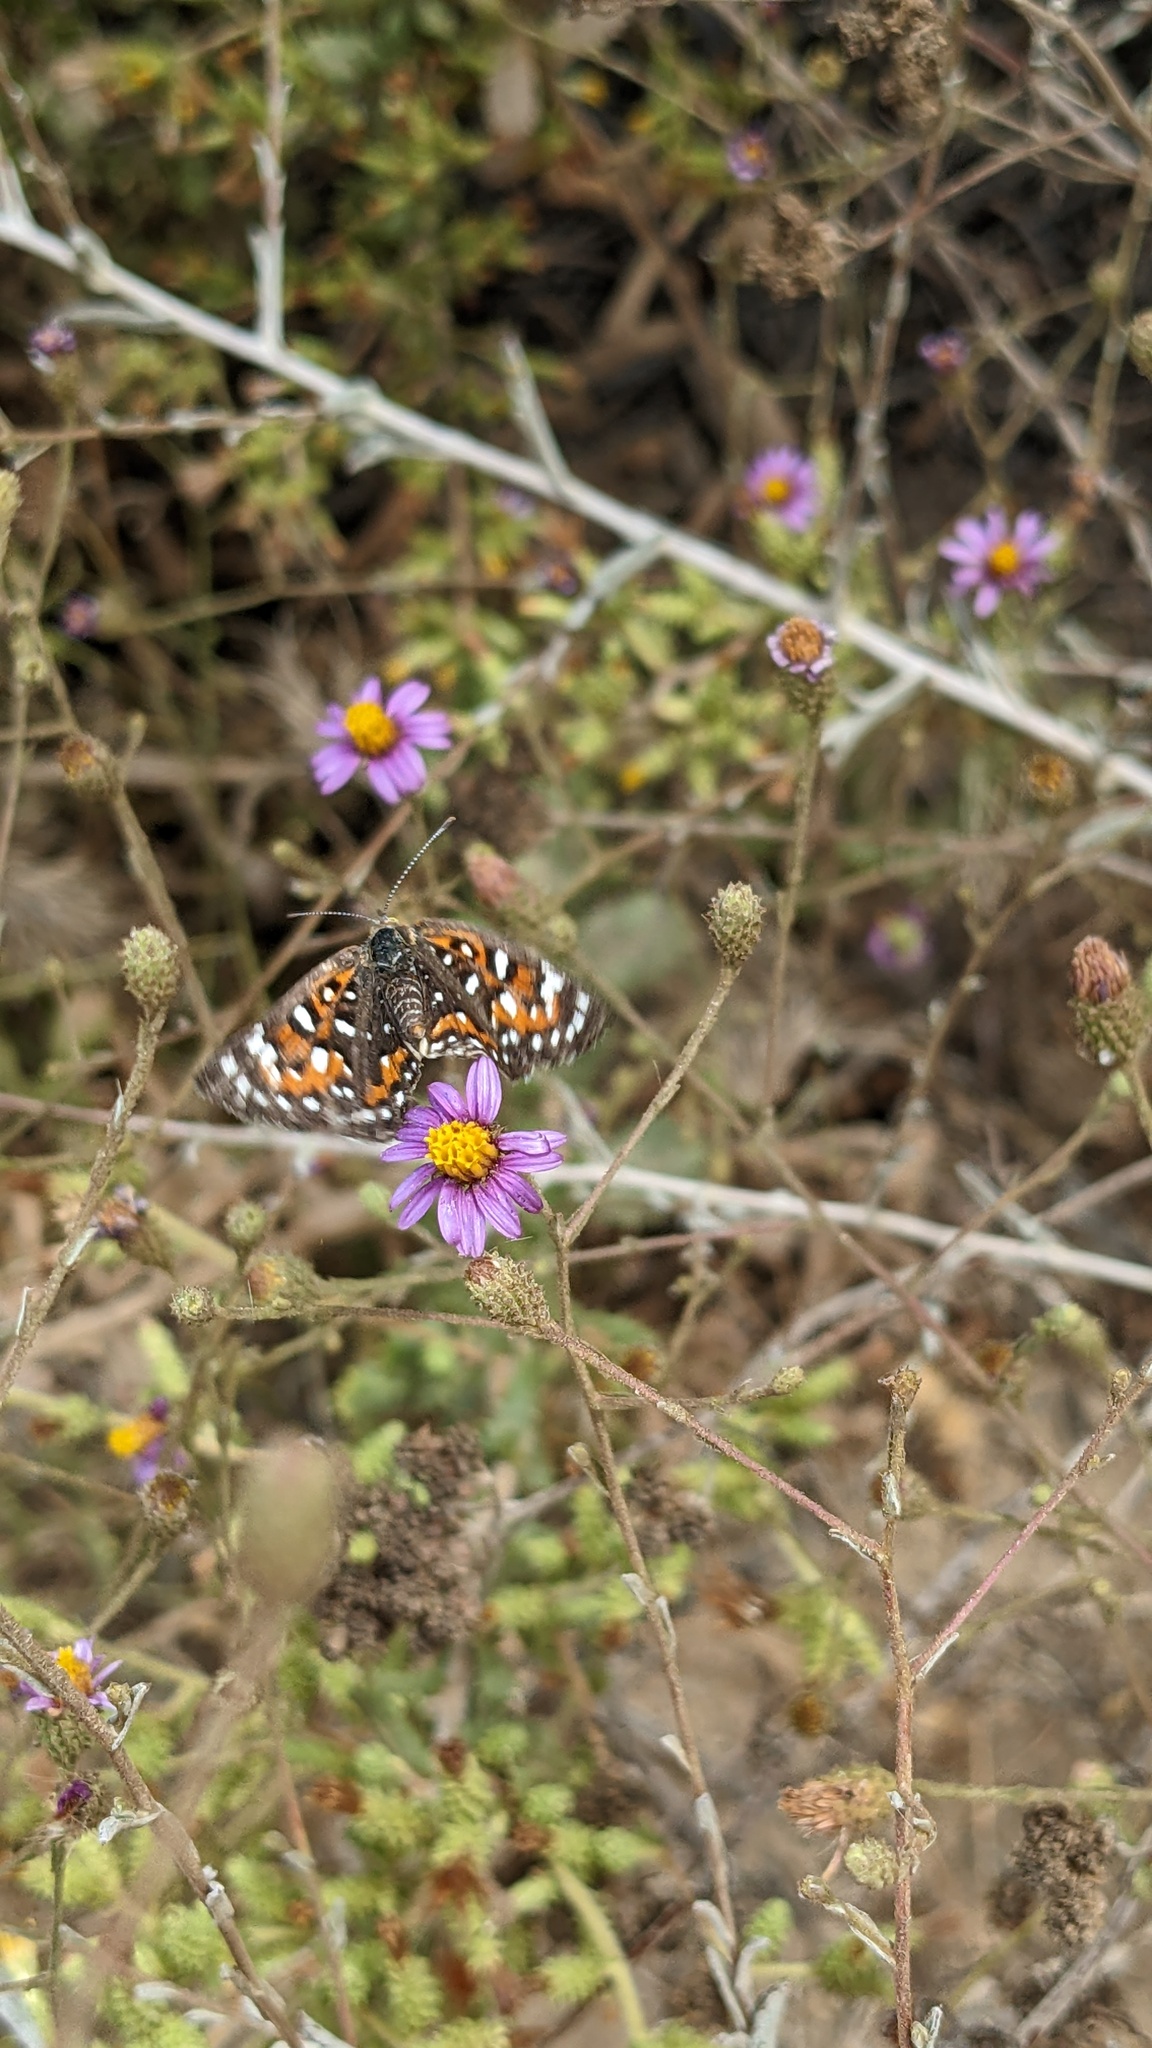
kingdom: Animalia
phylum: Arthropoda
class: Insecta
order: Lepidoptera
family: Riodinidae
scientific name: Riodinidae
